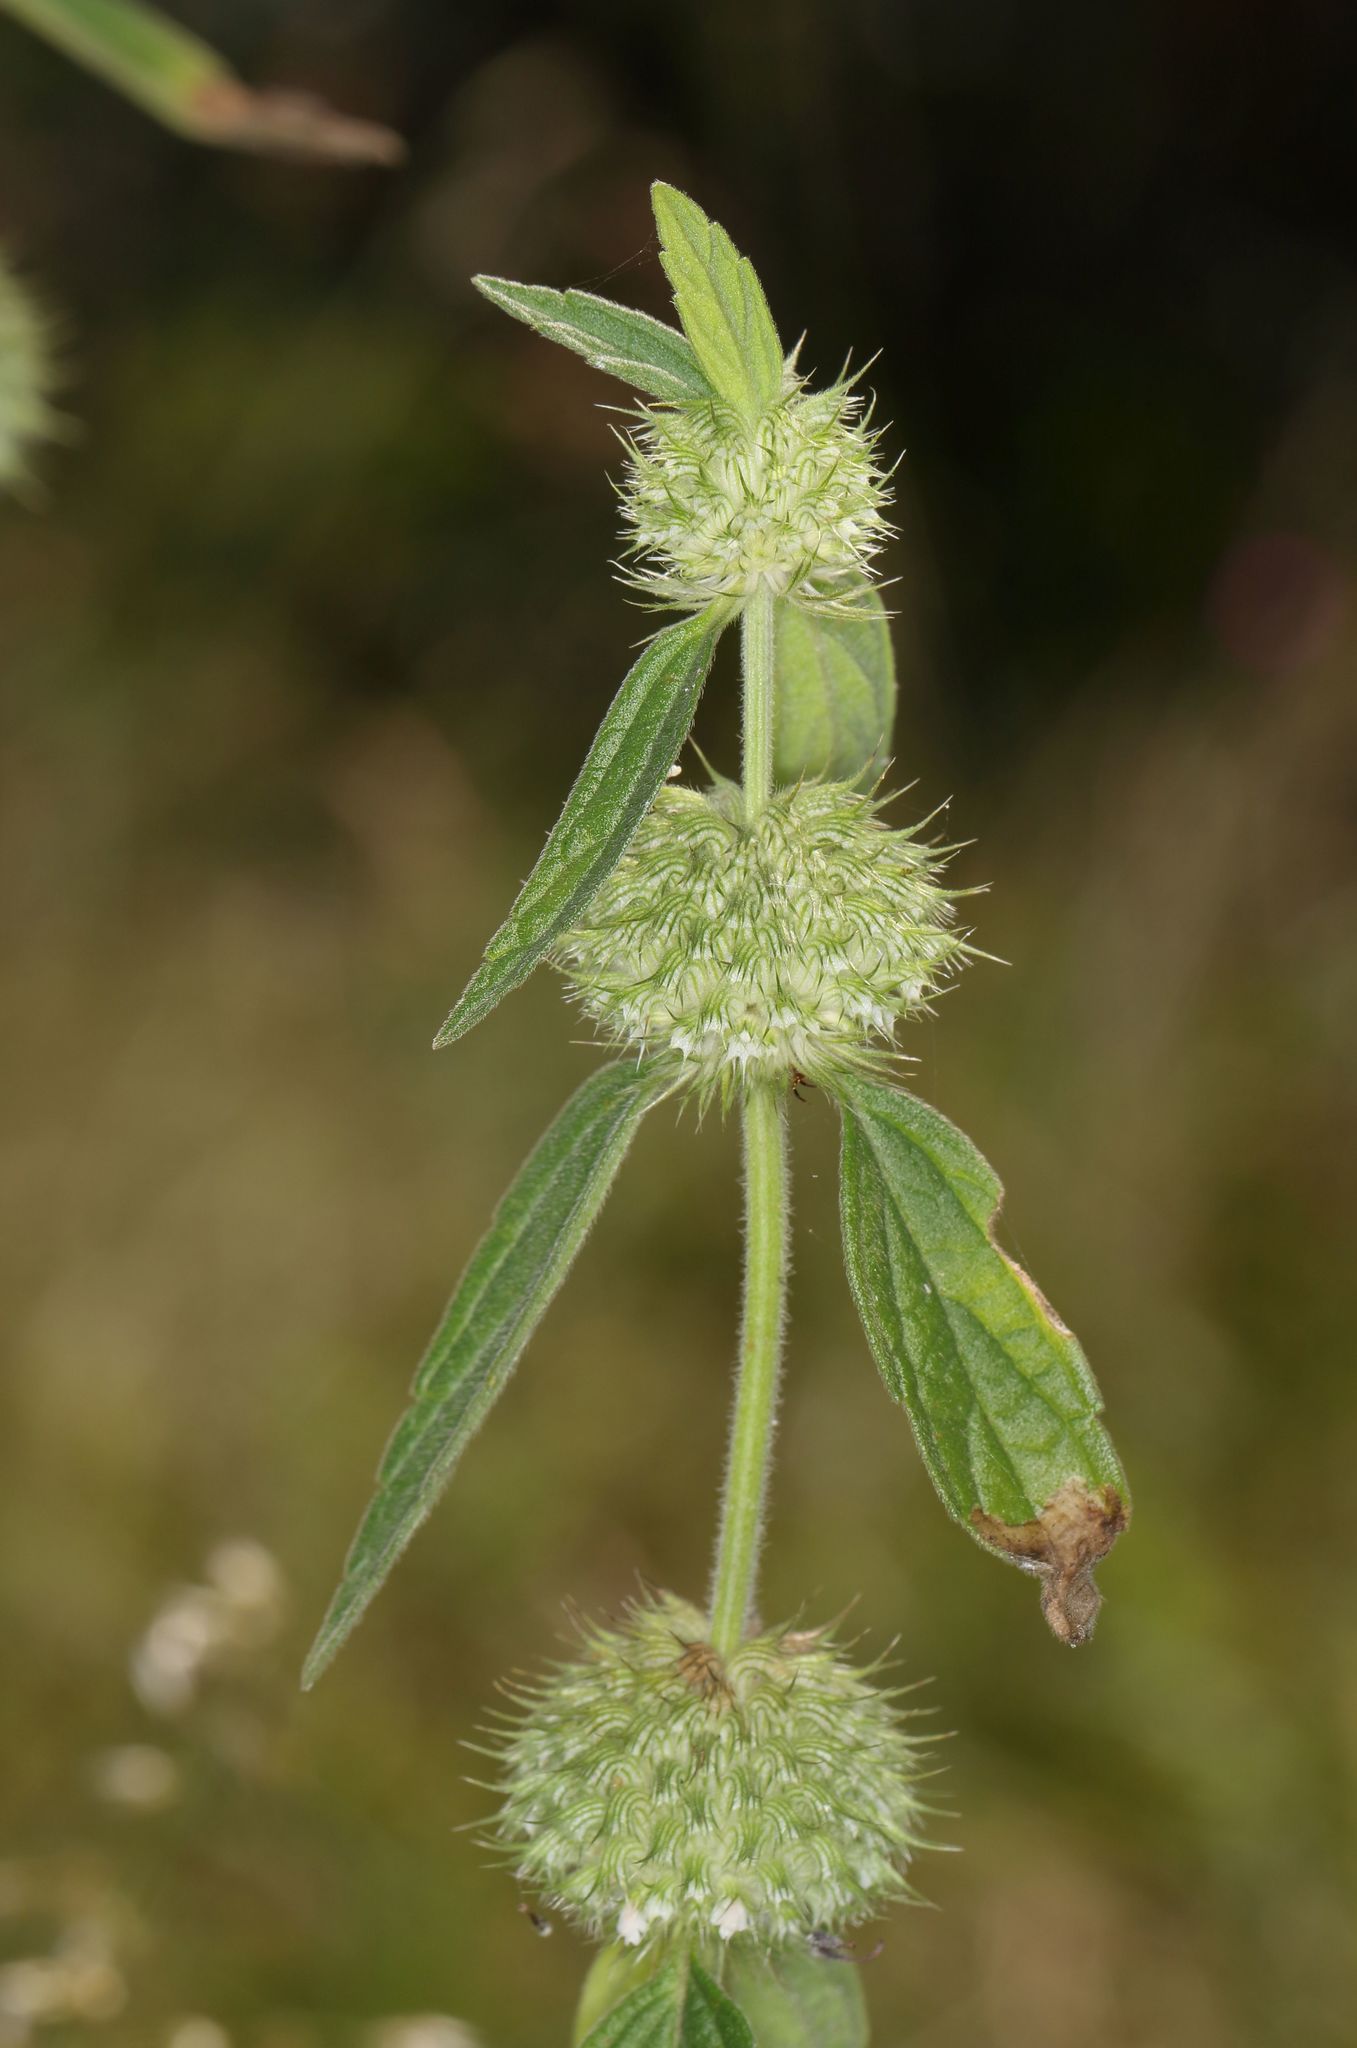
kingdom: Plantae
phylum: Tracheophyta
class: Magnoliopsida
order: Lamiales
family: Lamiaceae
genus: Leucas
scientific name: Leucas martinicensis
